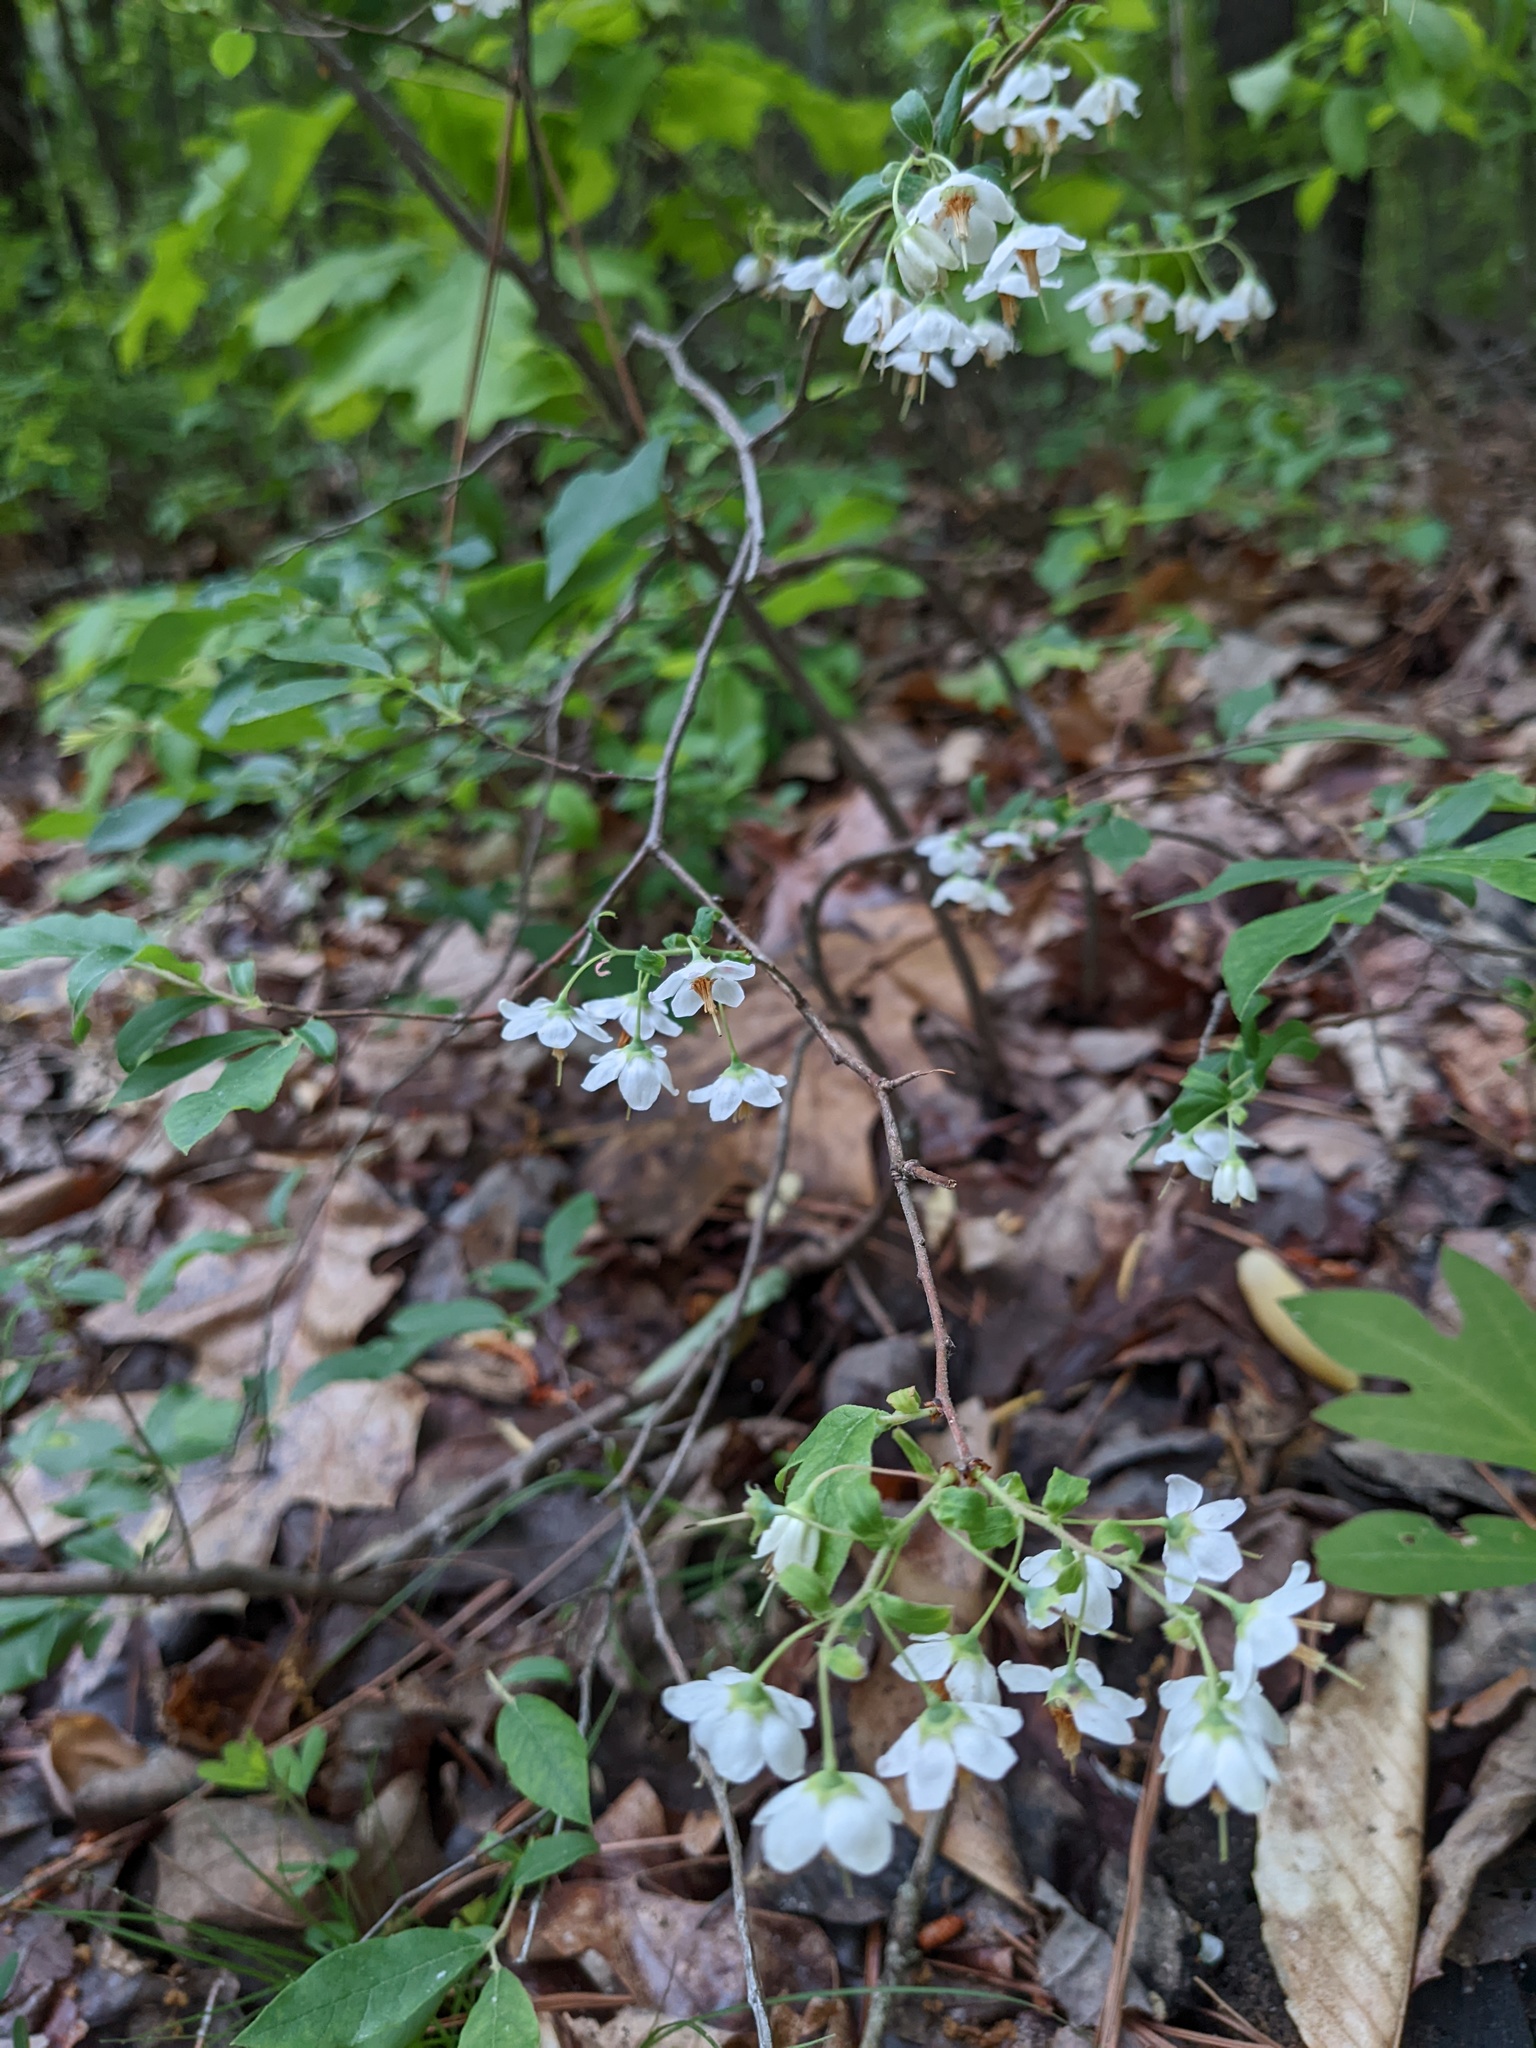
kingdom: Plantae
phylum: Tracheophyta
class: Magnoliopsida
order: Ericales
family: Ericaceae
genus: Vaccinium
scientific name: Vaccinium stamineum
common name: Deerberry
